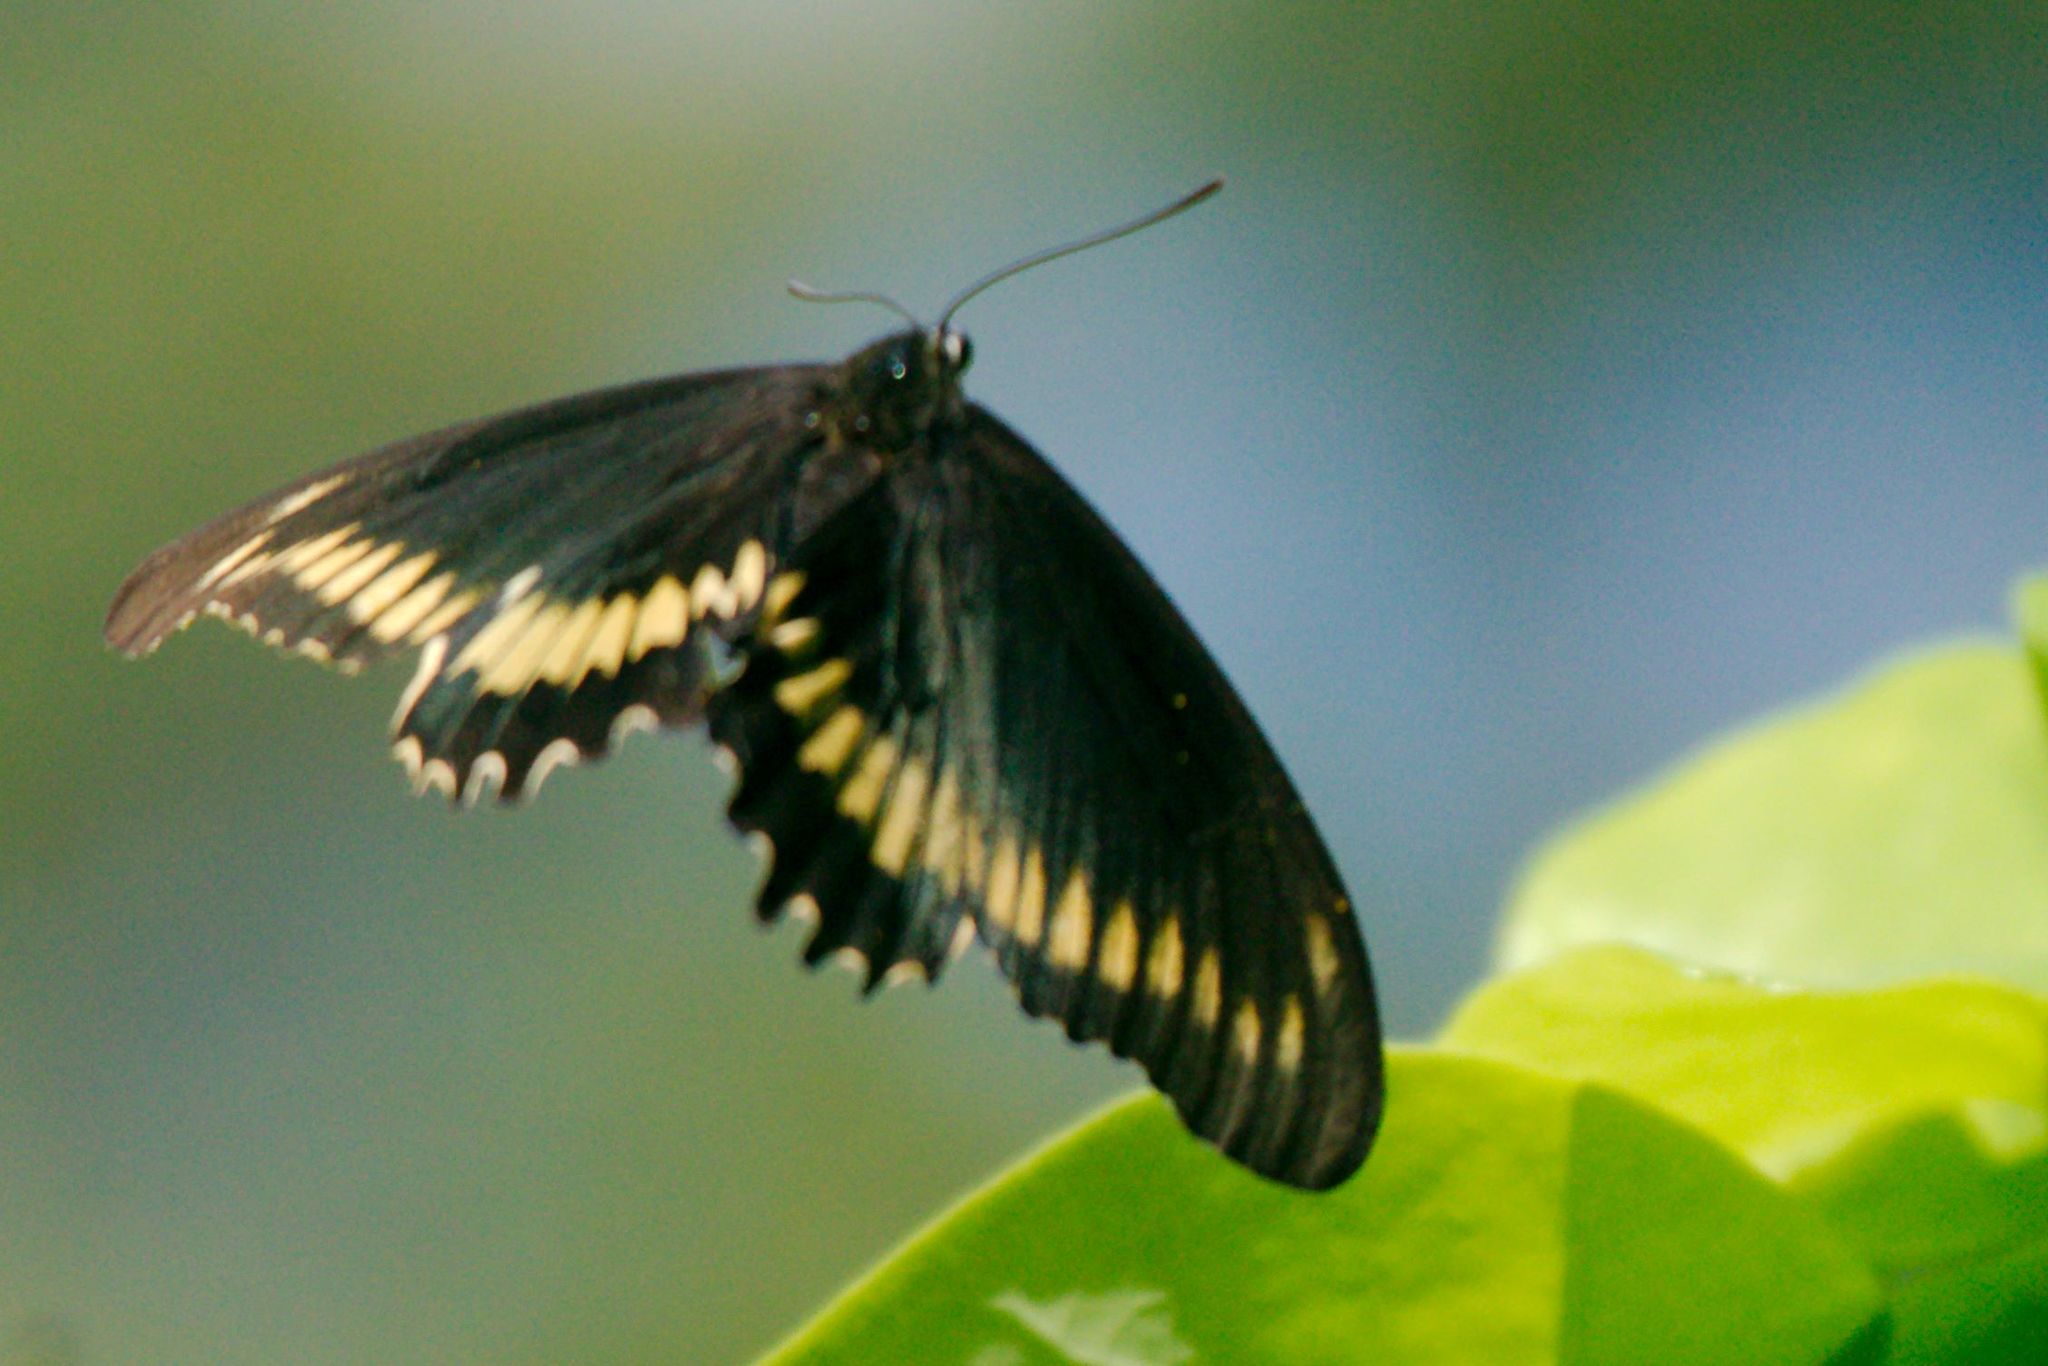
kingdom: Animalia
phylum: Arthropoda
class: Insecta
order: Lepidoptera
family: Papilionidae
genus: Battus
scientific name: Battus polydamas
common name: Polydamas swallowtail
